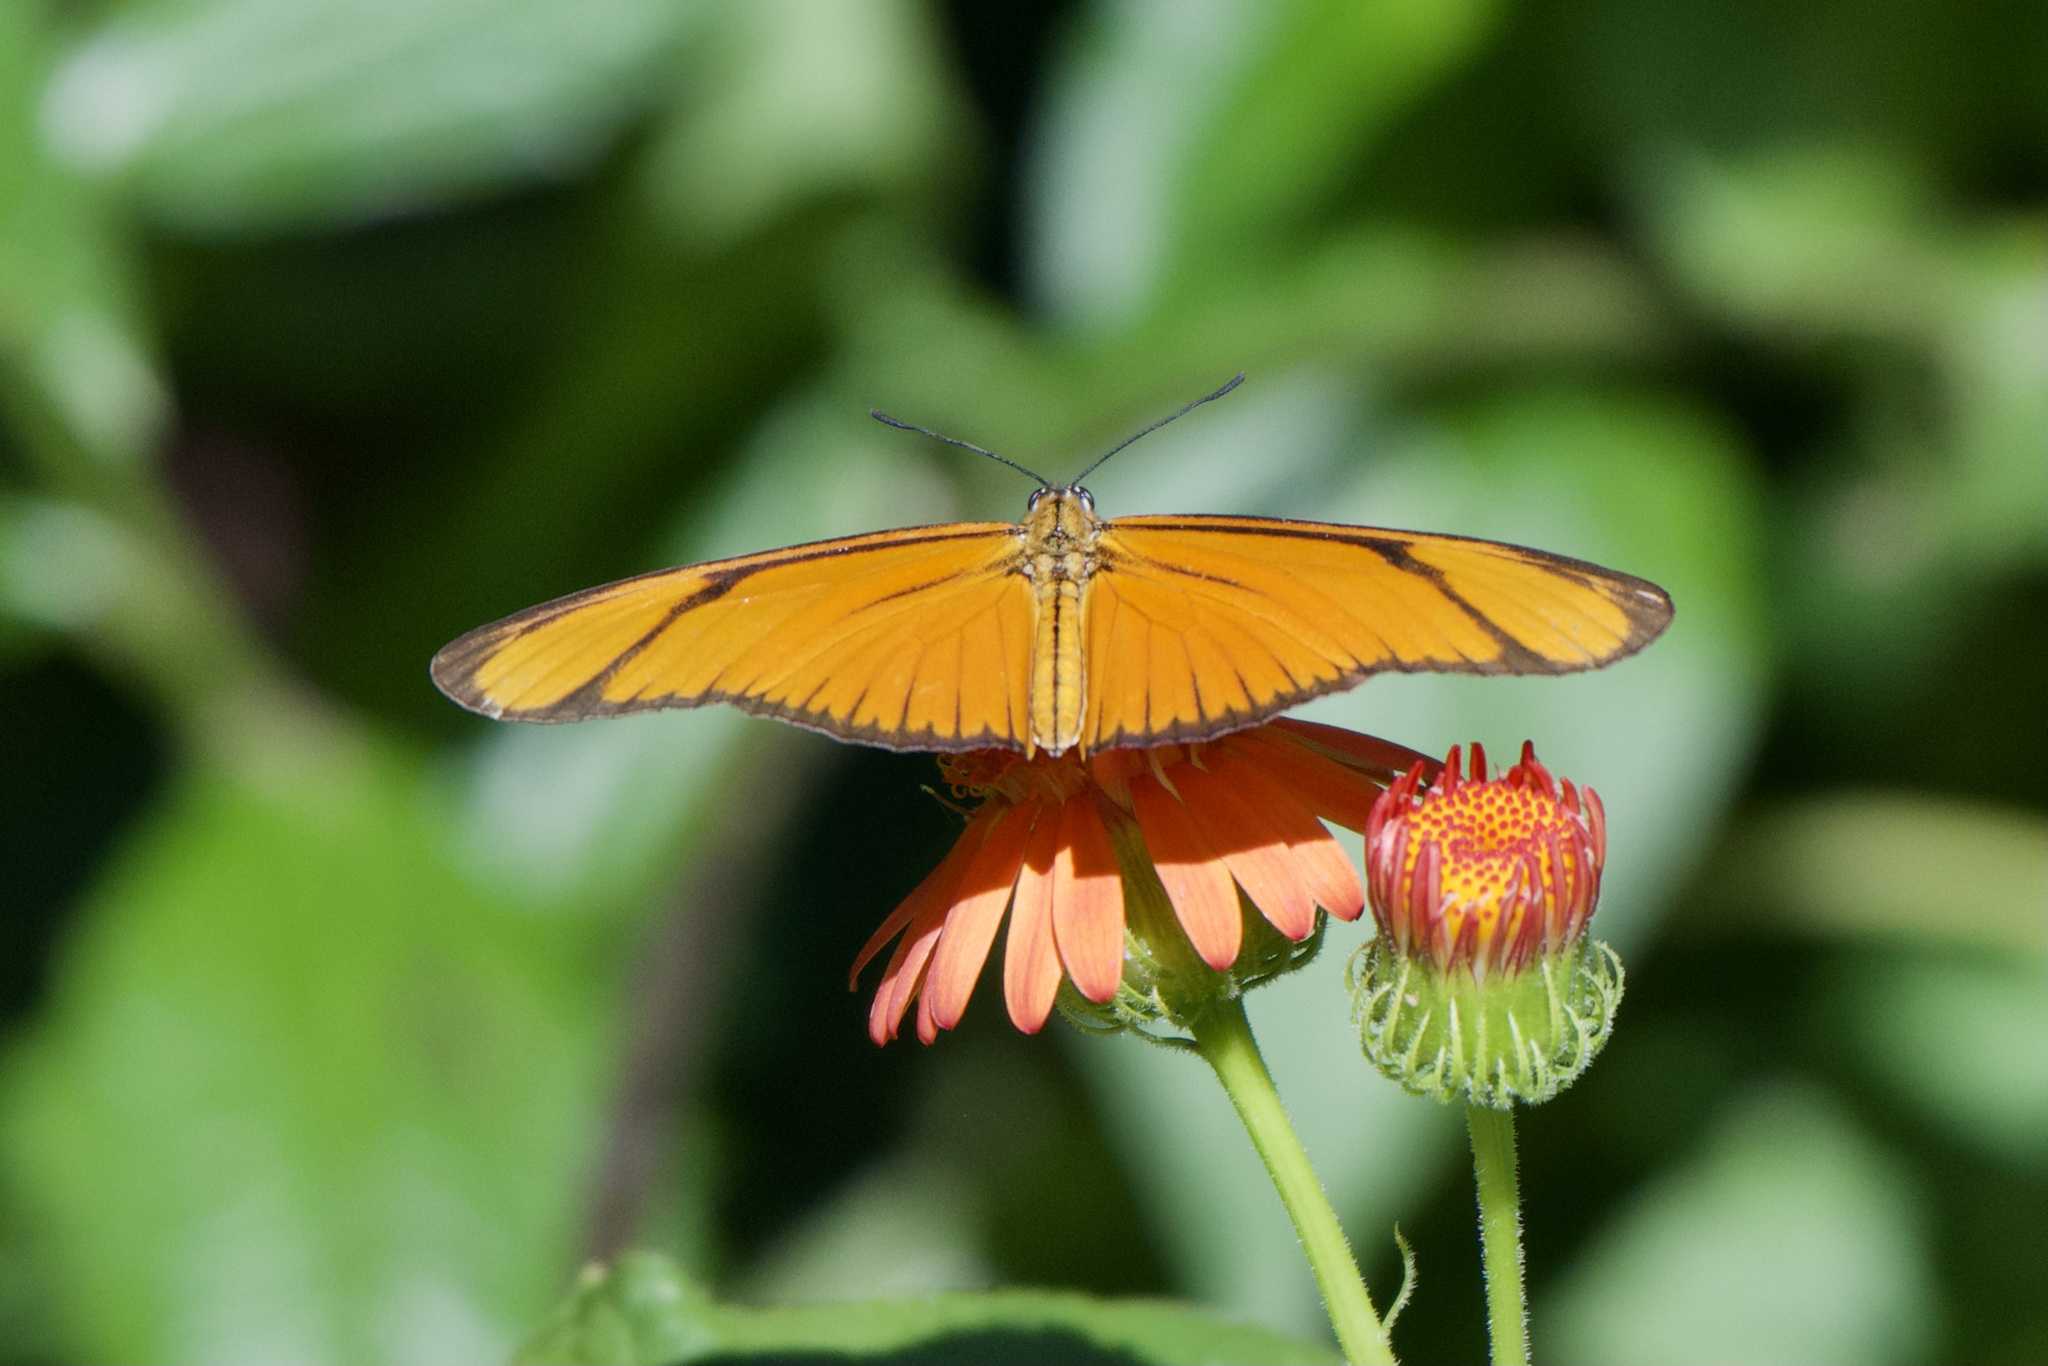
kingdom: Animalia
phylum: Arthropoda
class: Insecta
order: Lepidoptera
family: Nymphalidae
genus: Heliconius
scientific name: Heliconius aliphera
